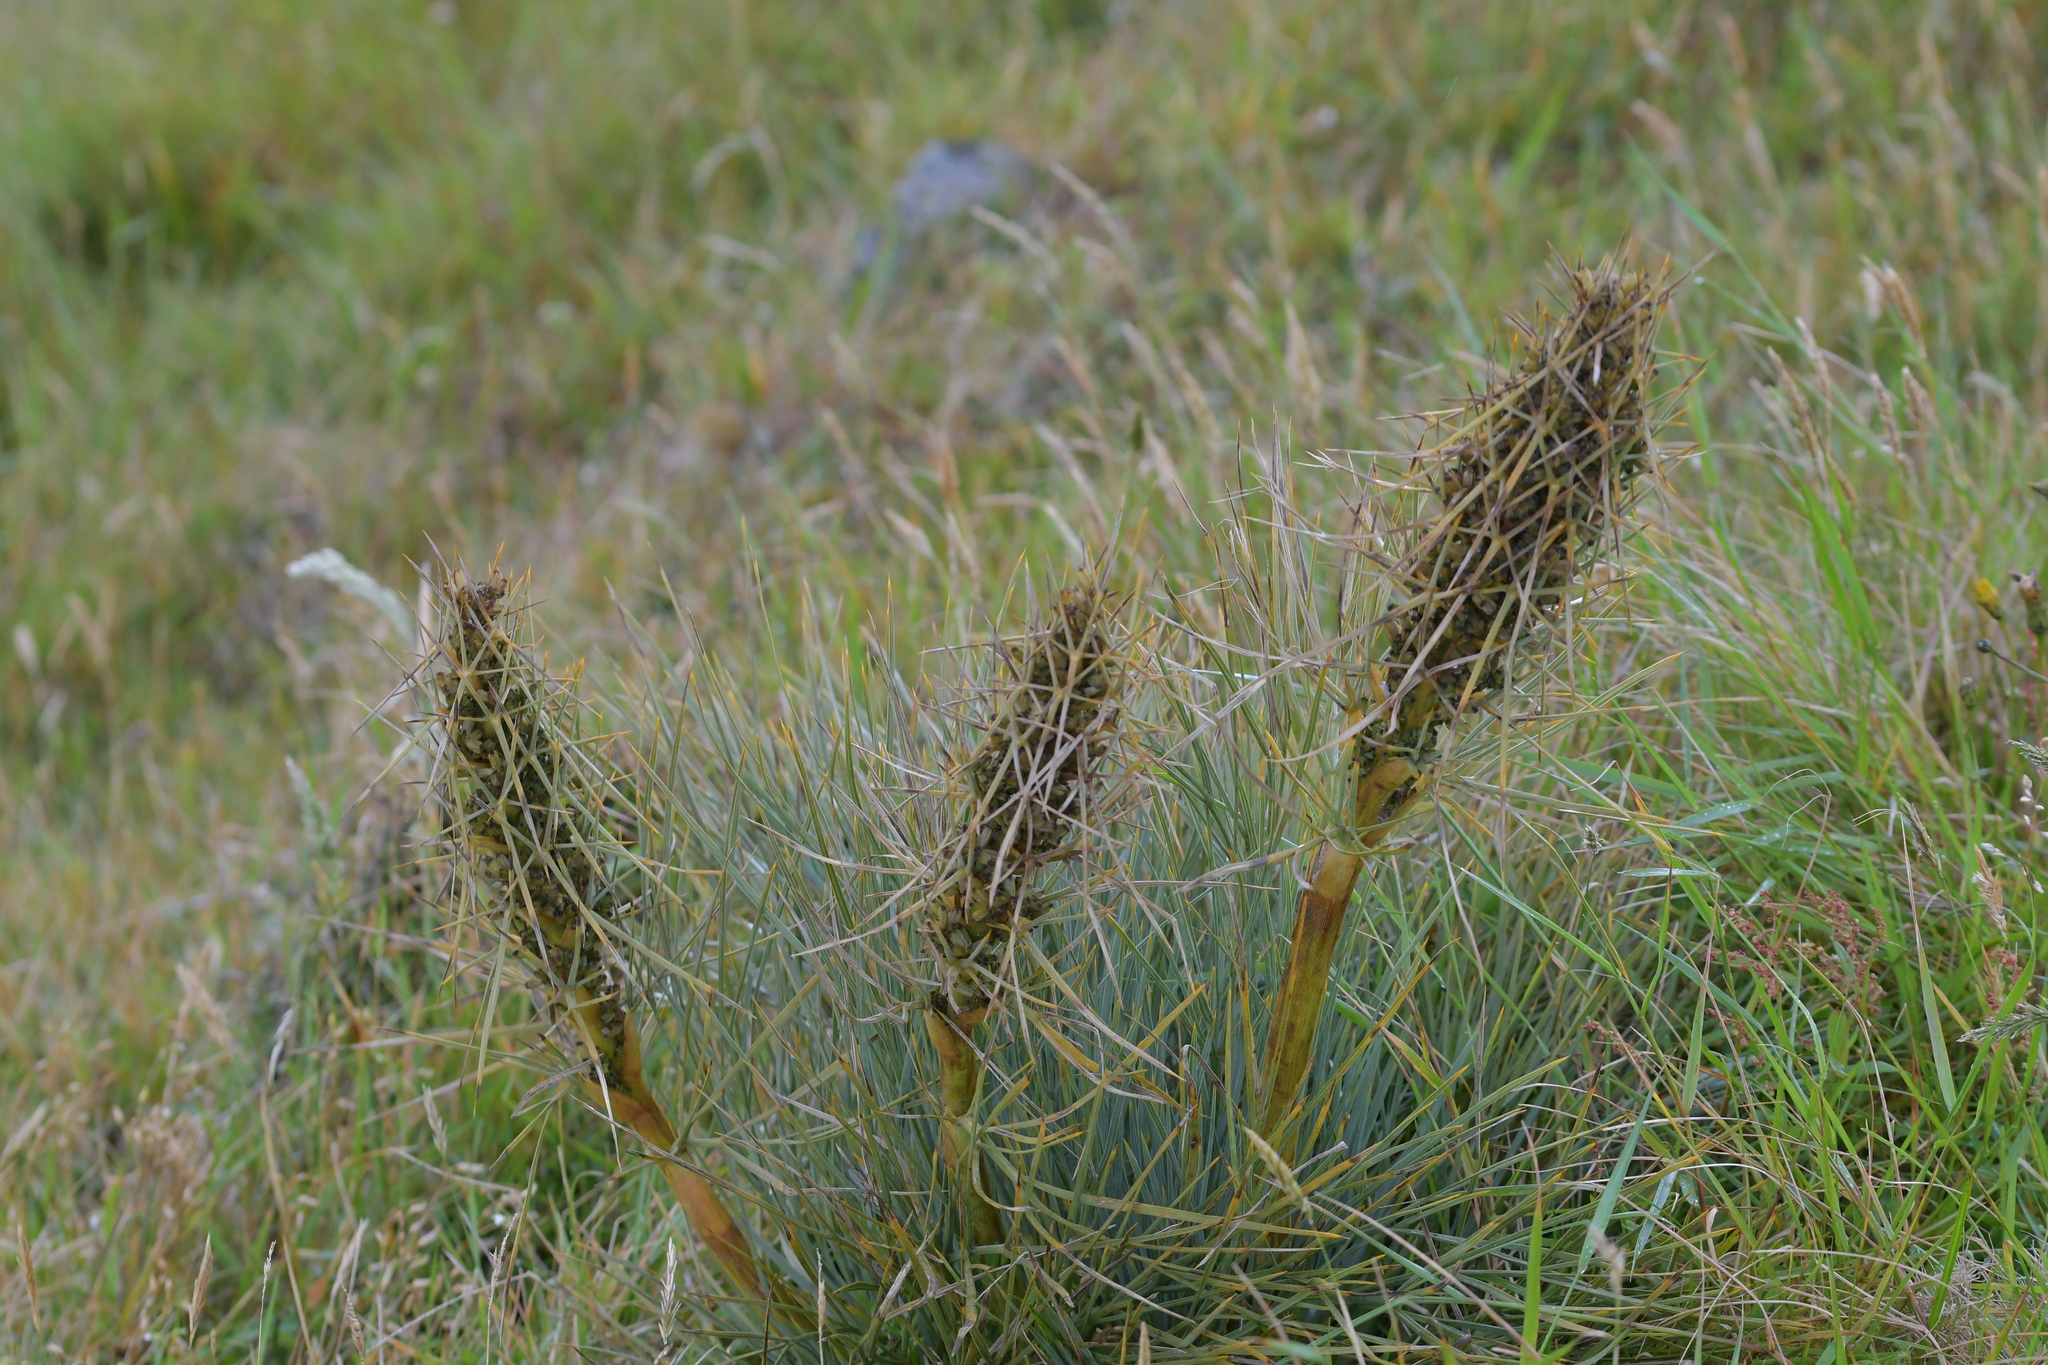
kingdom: Plantae
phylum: Tracheophyta
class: Magnoliopsida
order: Apiales
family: Apiaceae
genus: Aciphylla
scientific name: Aciphylla squarrosa
